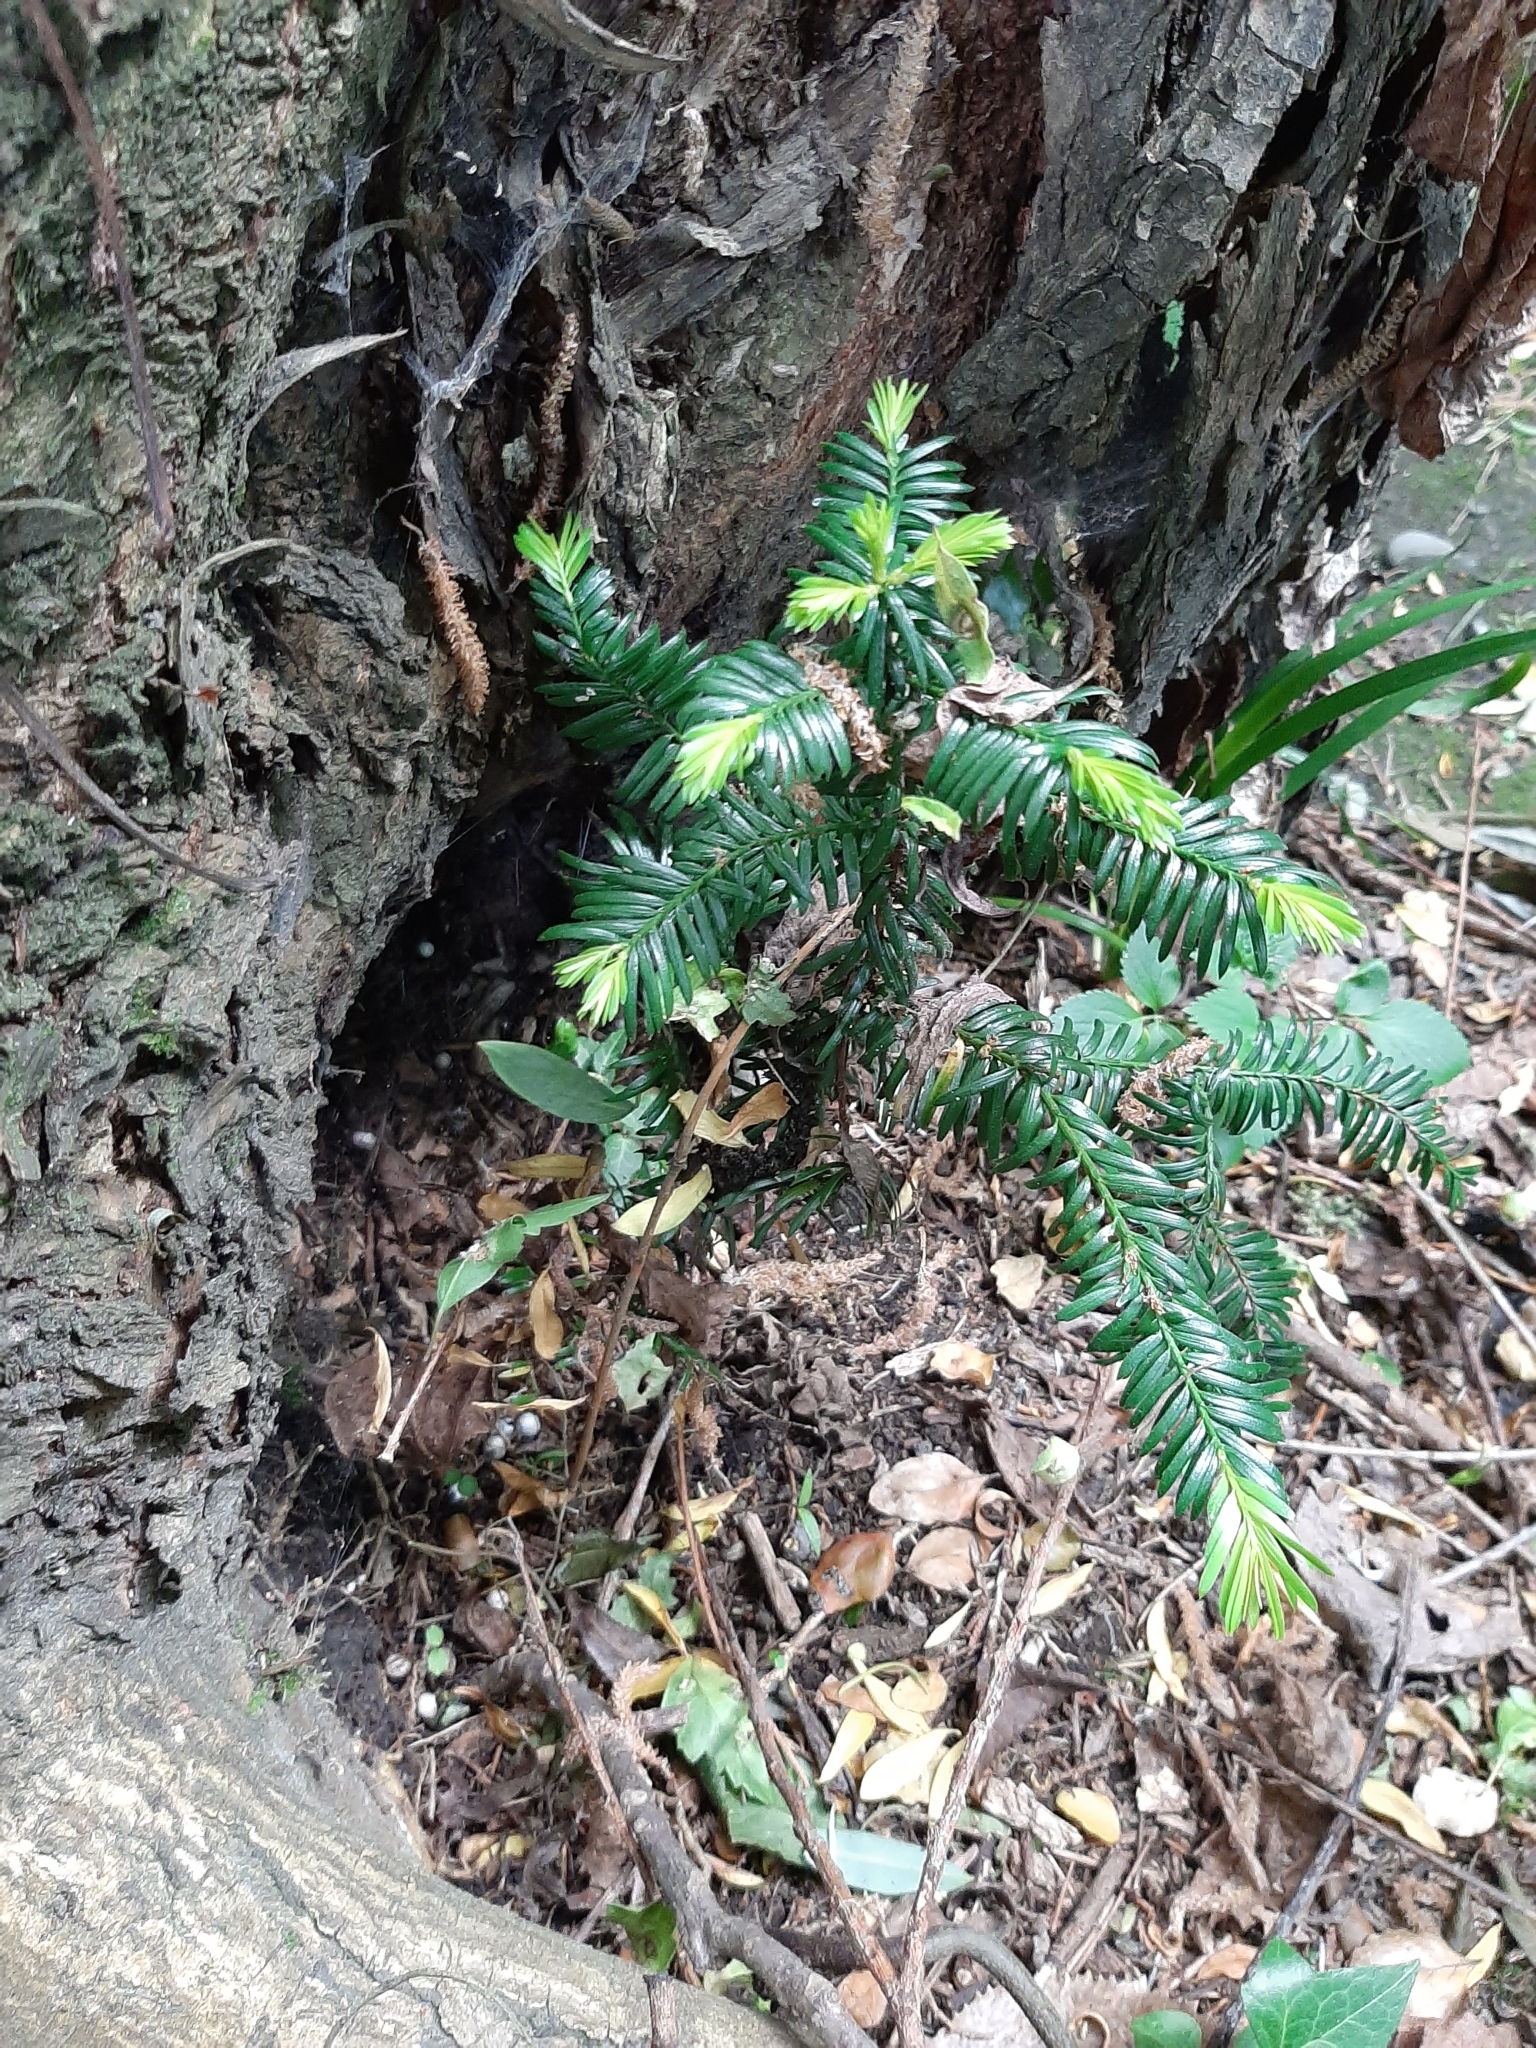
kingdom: Plantae
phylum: Tracheophyta
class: Pinopsida
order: Pinales
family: Taxaceae
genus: Taxus
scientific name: Taxus baccata
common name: Yew
